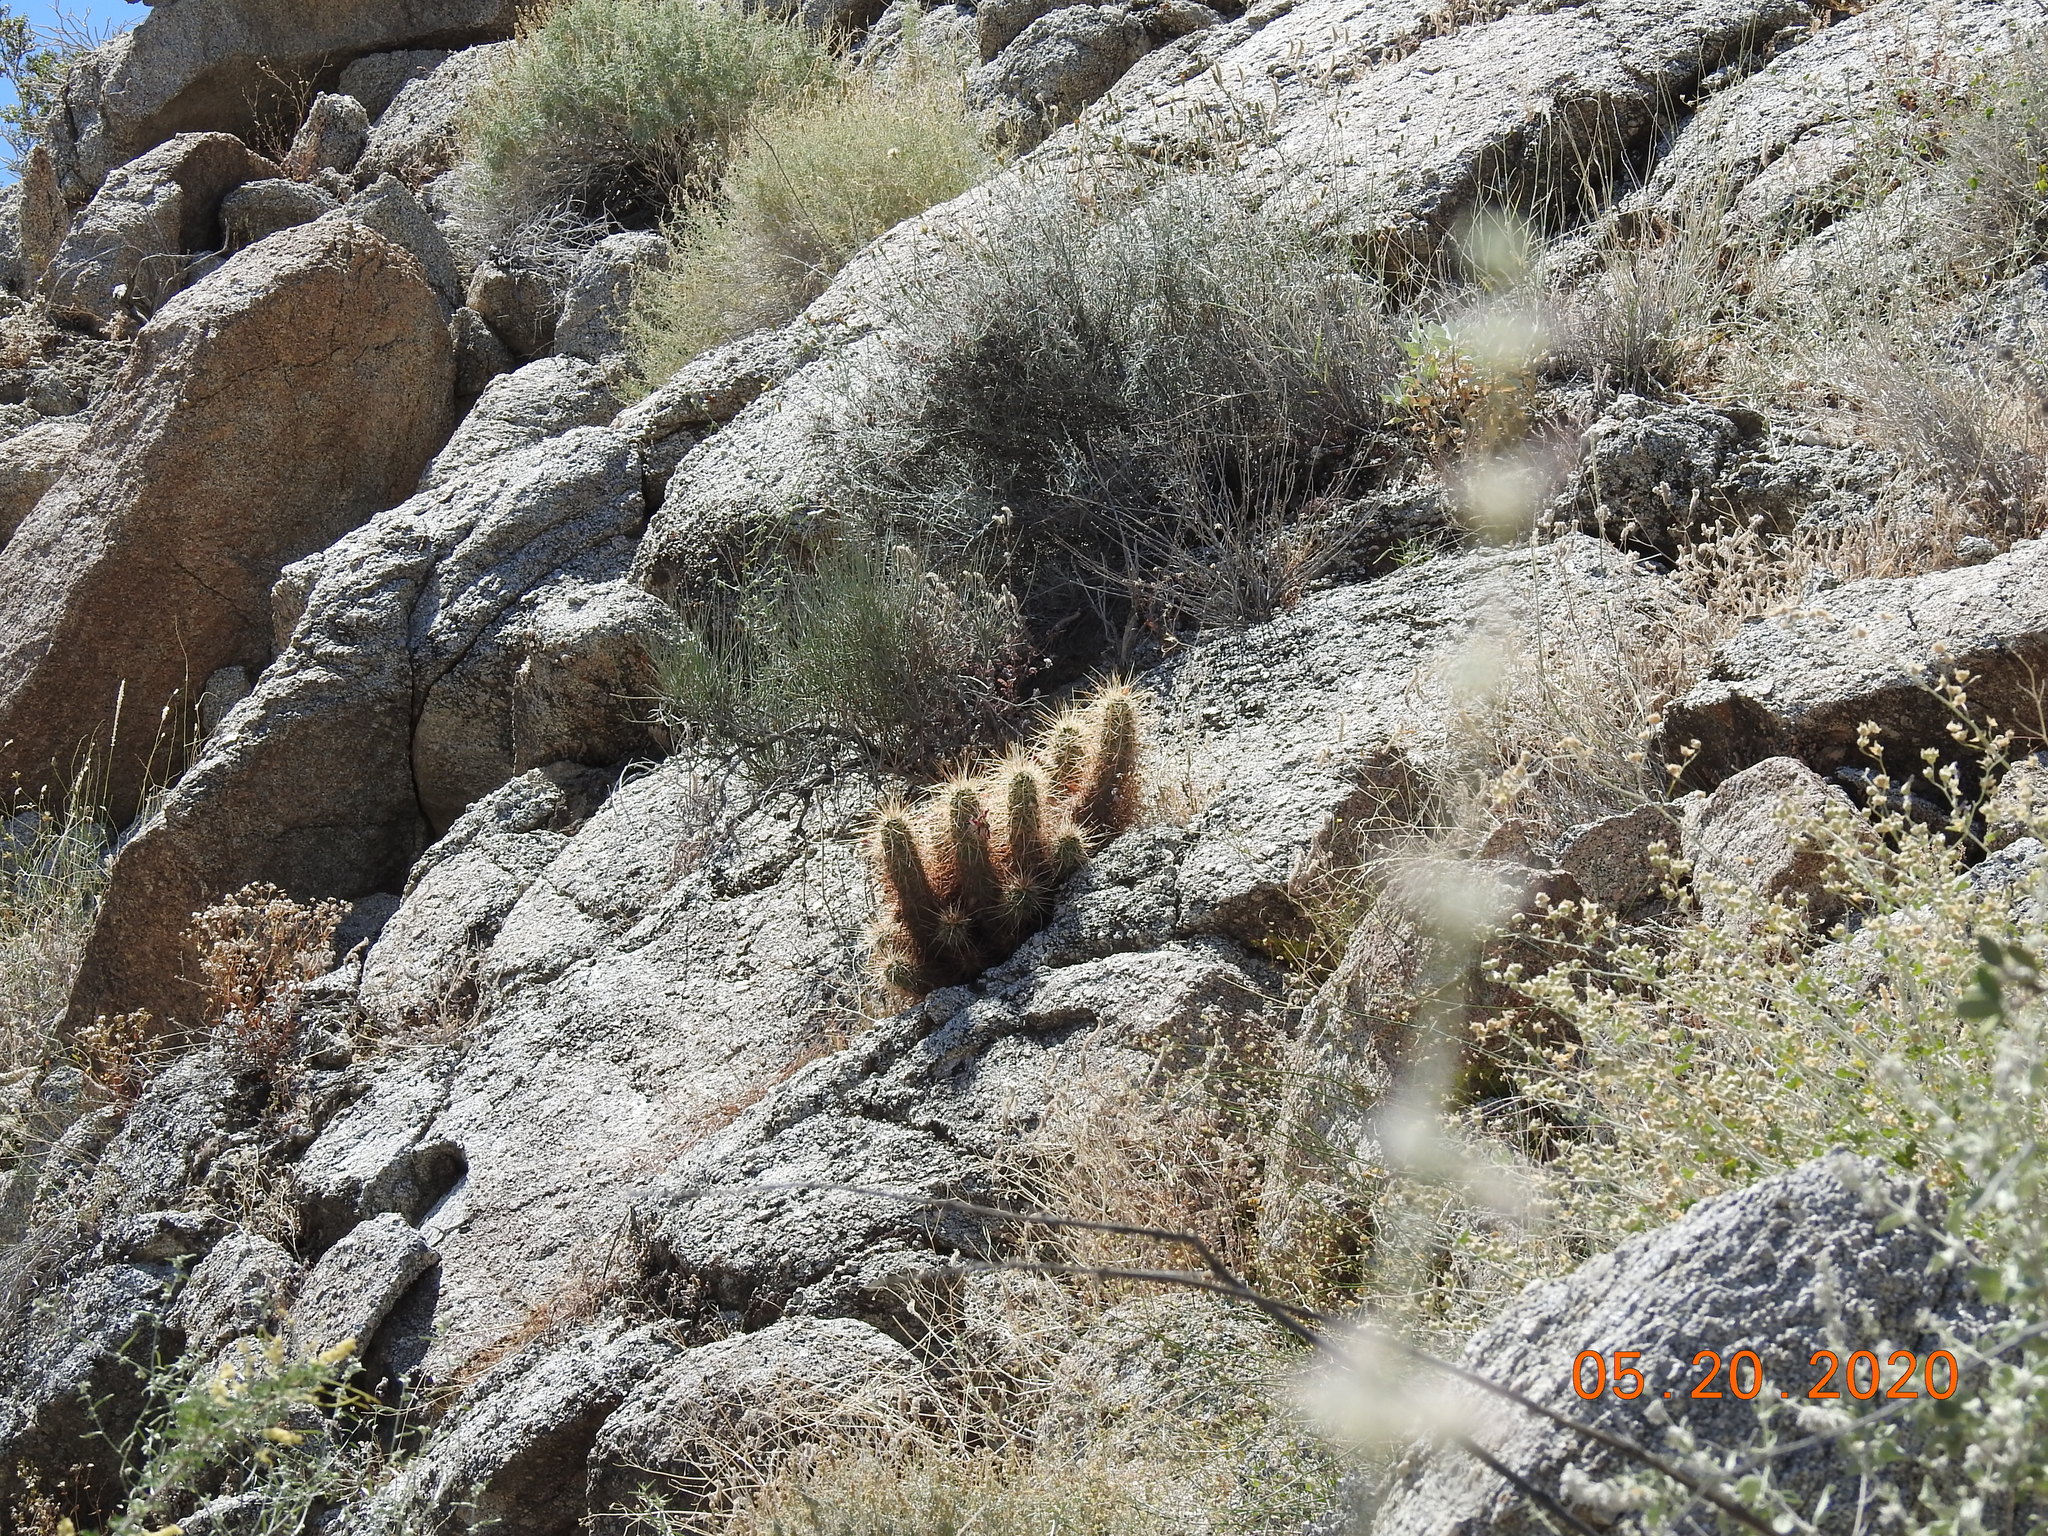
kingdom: Plantae
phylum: Tracheophyta
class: Magnoliopsida
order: Caryophyllales
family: Cactaceae
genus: Echinocereus
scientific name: Echinocereus engelmannii
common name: Engelmann's hedgehog cactus
